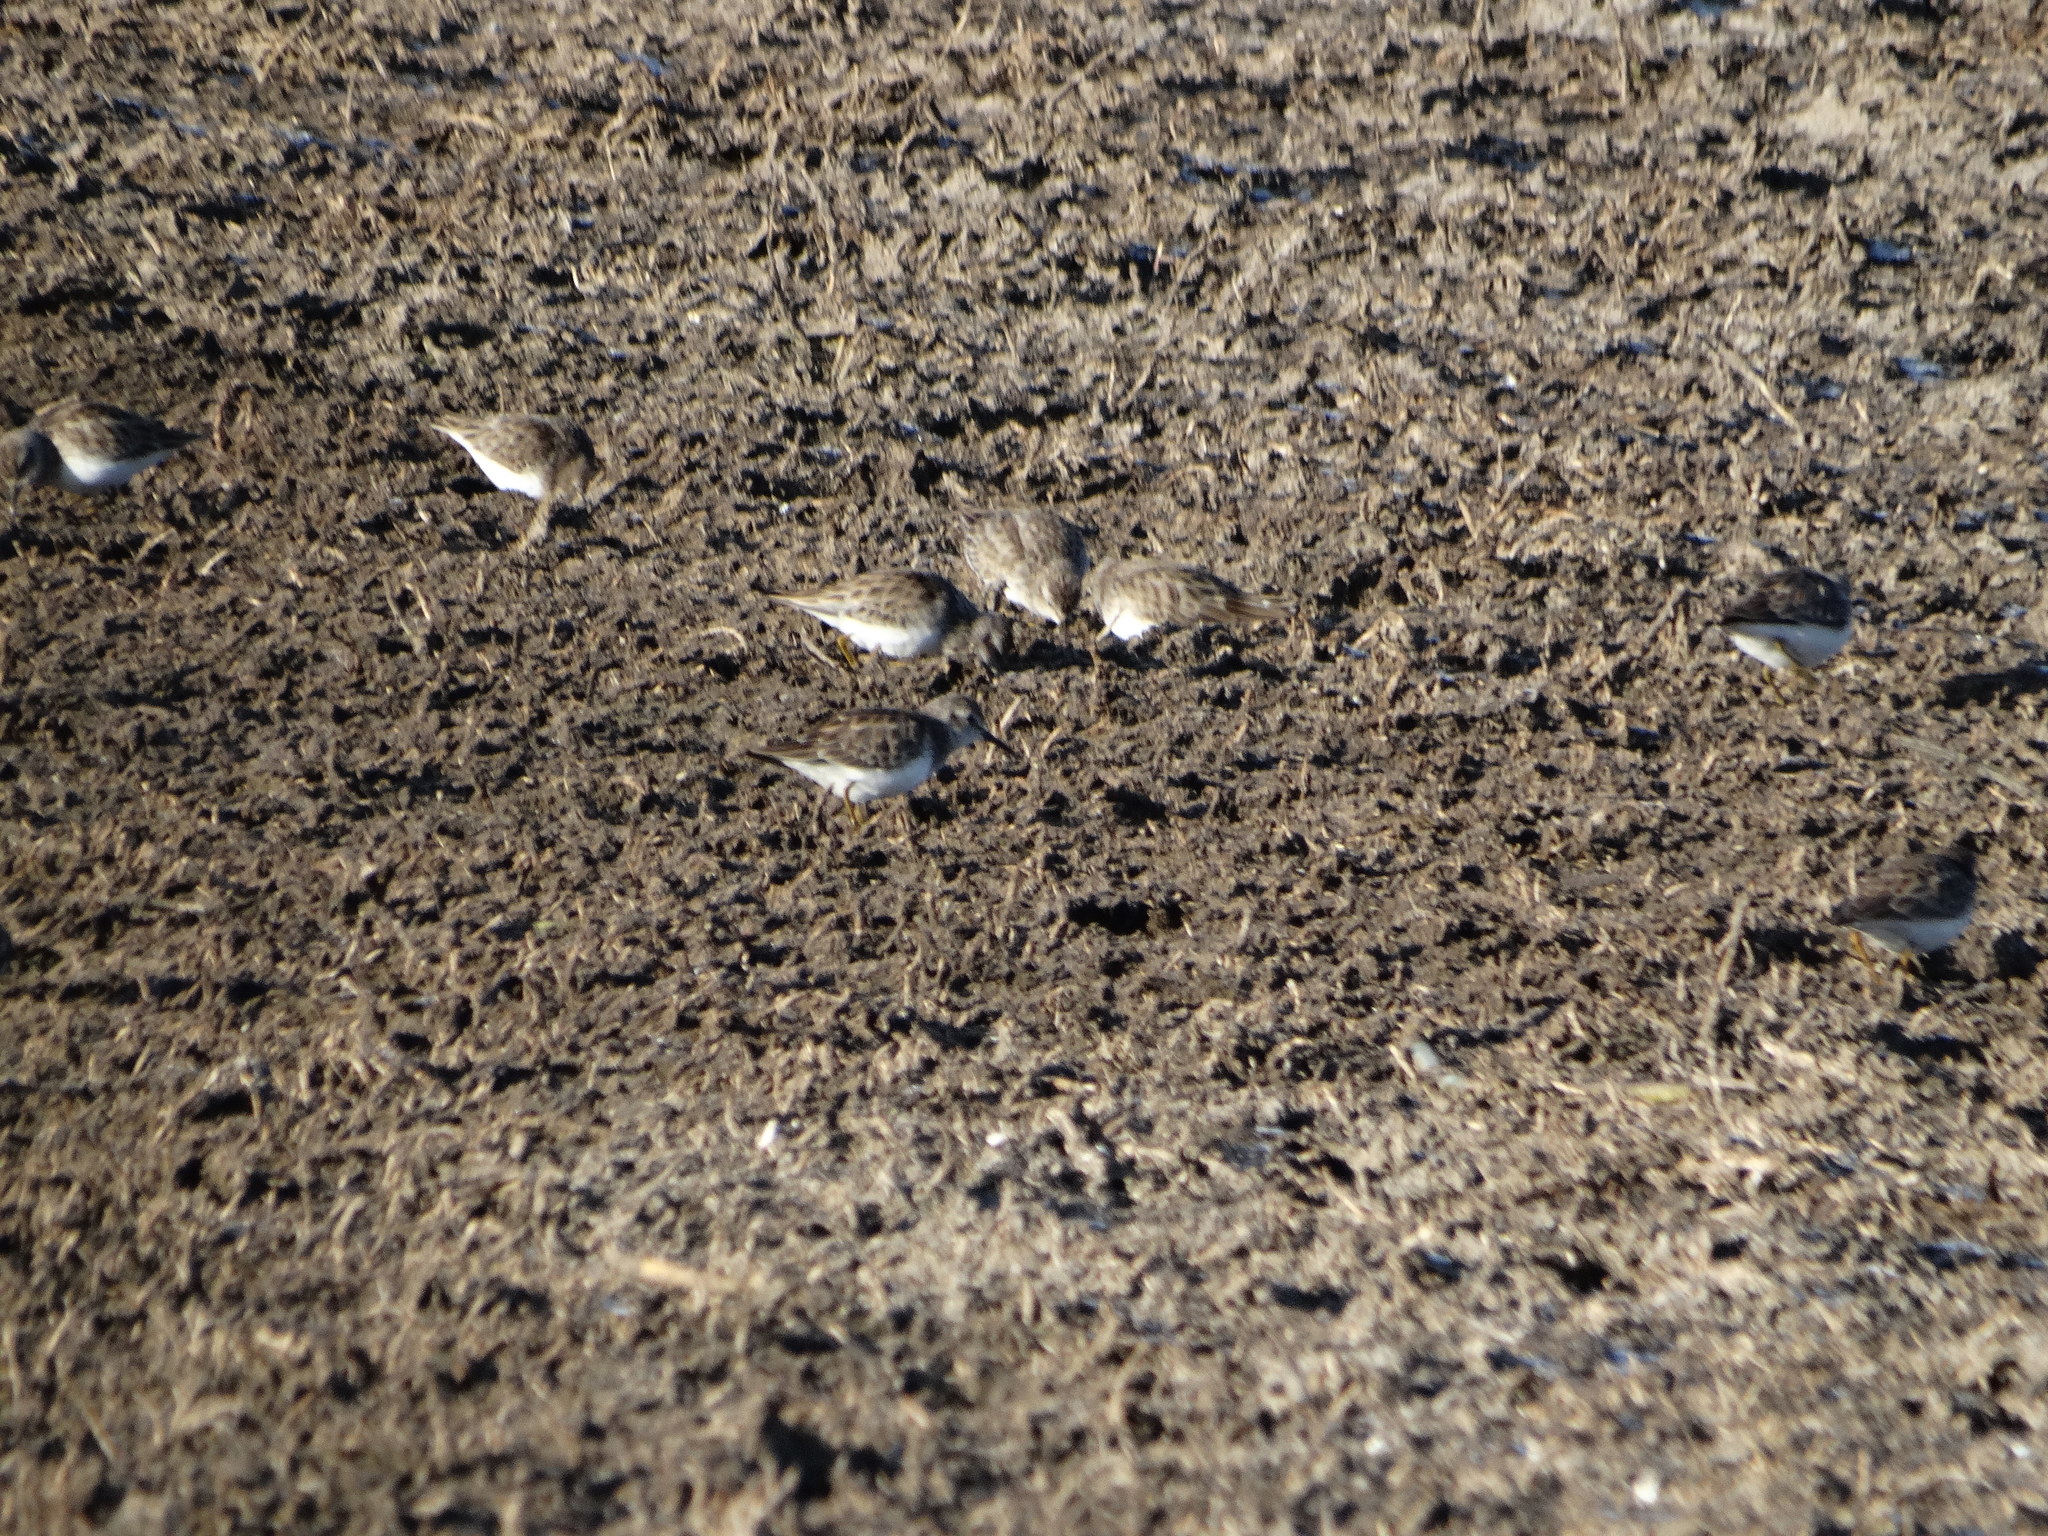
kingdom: Animalia
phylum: Chordata
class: Aves
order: Charadriiformes
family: Scolopacidae
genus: Calidris
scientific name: Calidris minutilla
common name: Least sandpiper
